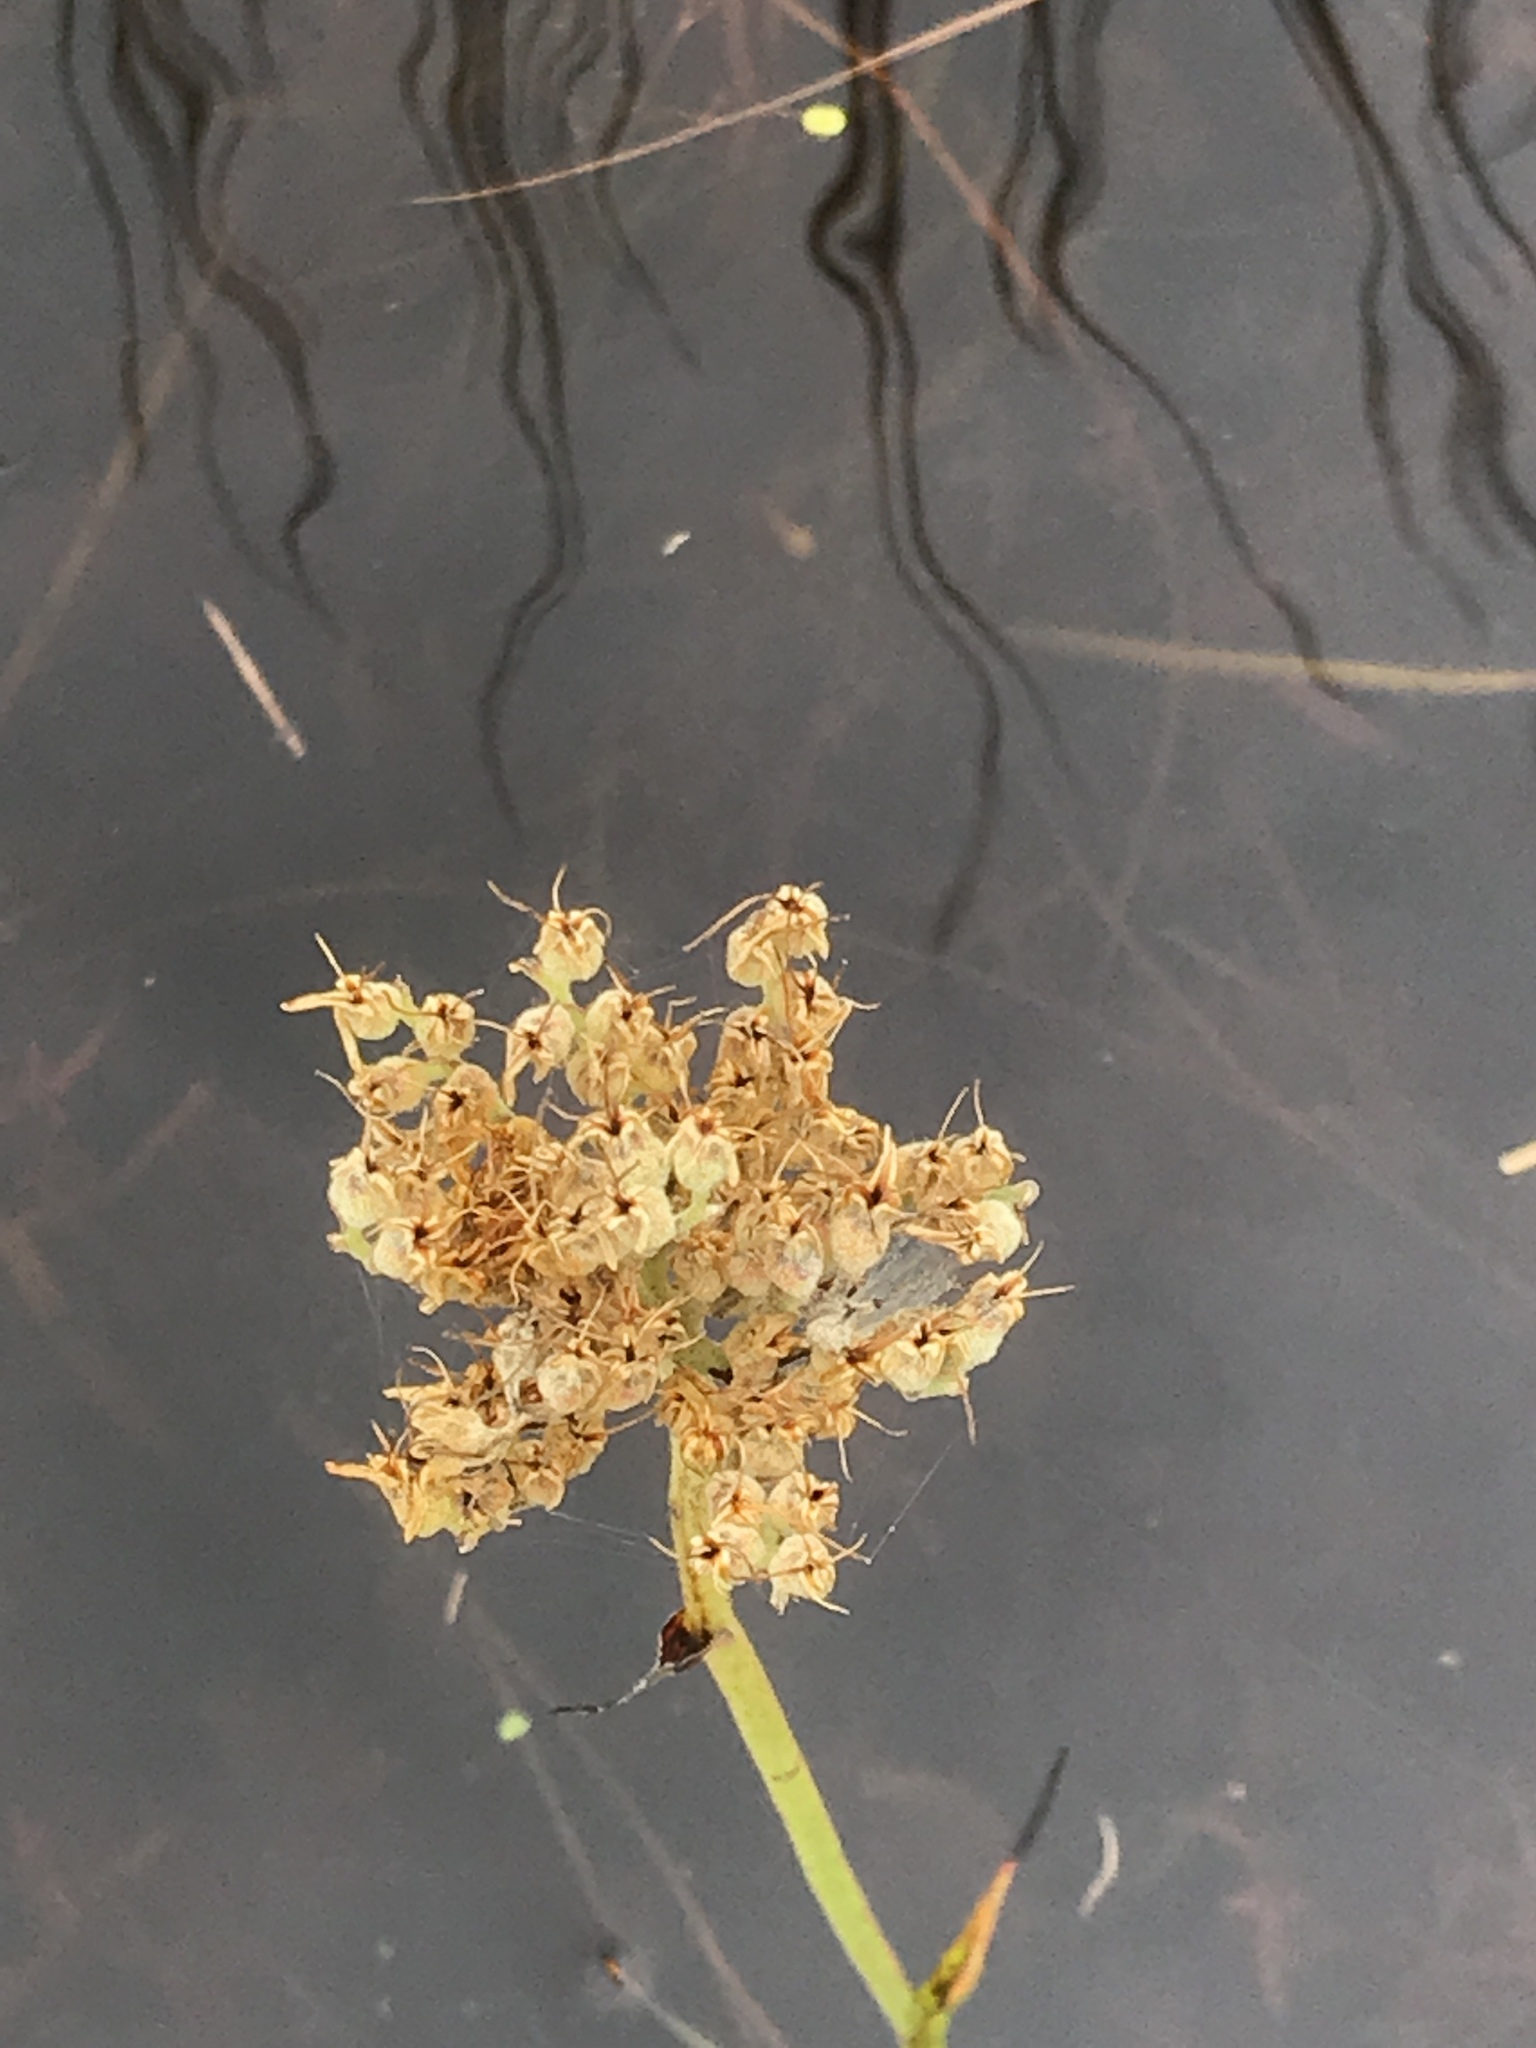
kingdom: Plantae
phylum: Tracheophyta
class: Liliopsida
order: Commelinales
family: Haemodoraceae
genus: Lachnanthes
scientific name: Lachnanthes caroliana
